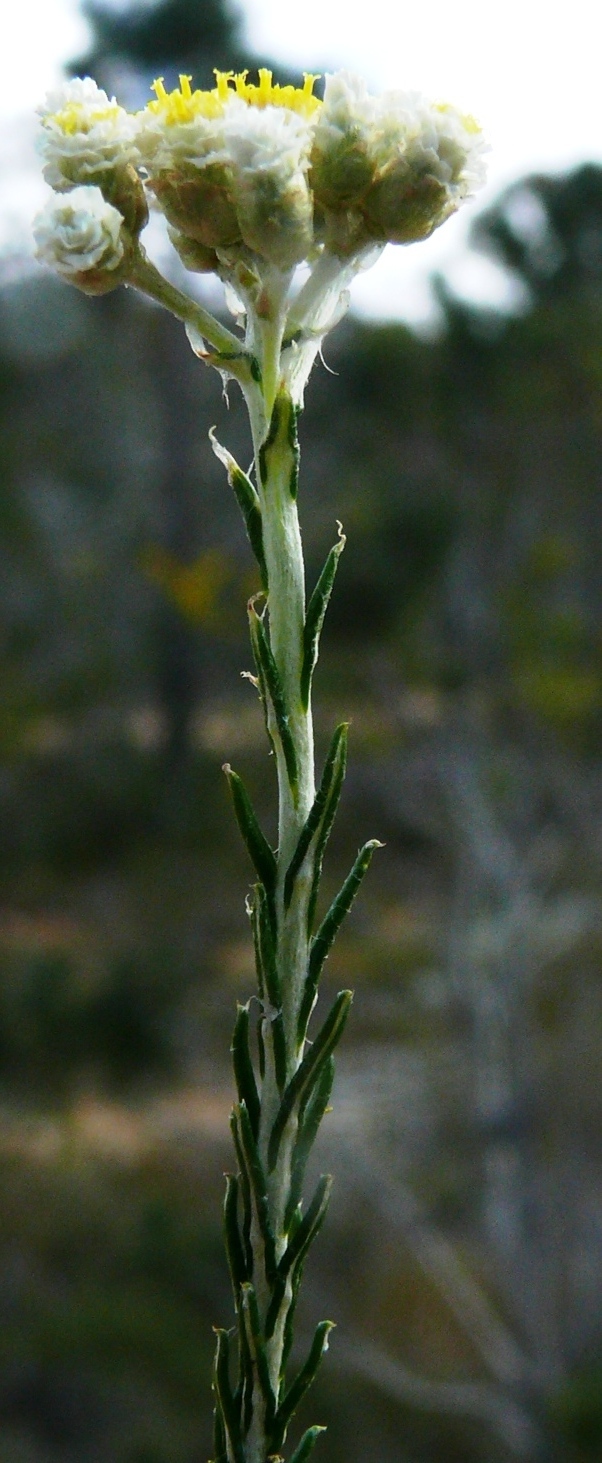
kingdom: Plantae
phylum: Tracheophyta
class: Magnoliopsida
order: Asterales
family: Asteraceae
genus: Helichrysum
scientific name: Helichrysum teretifolium
